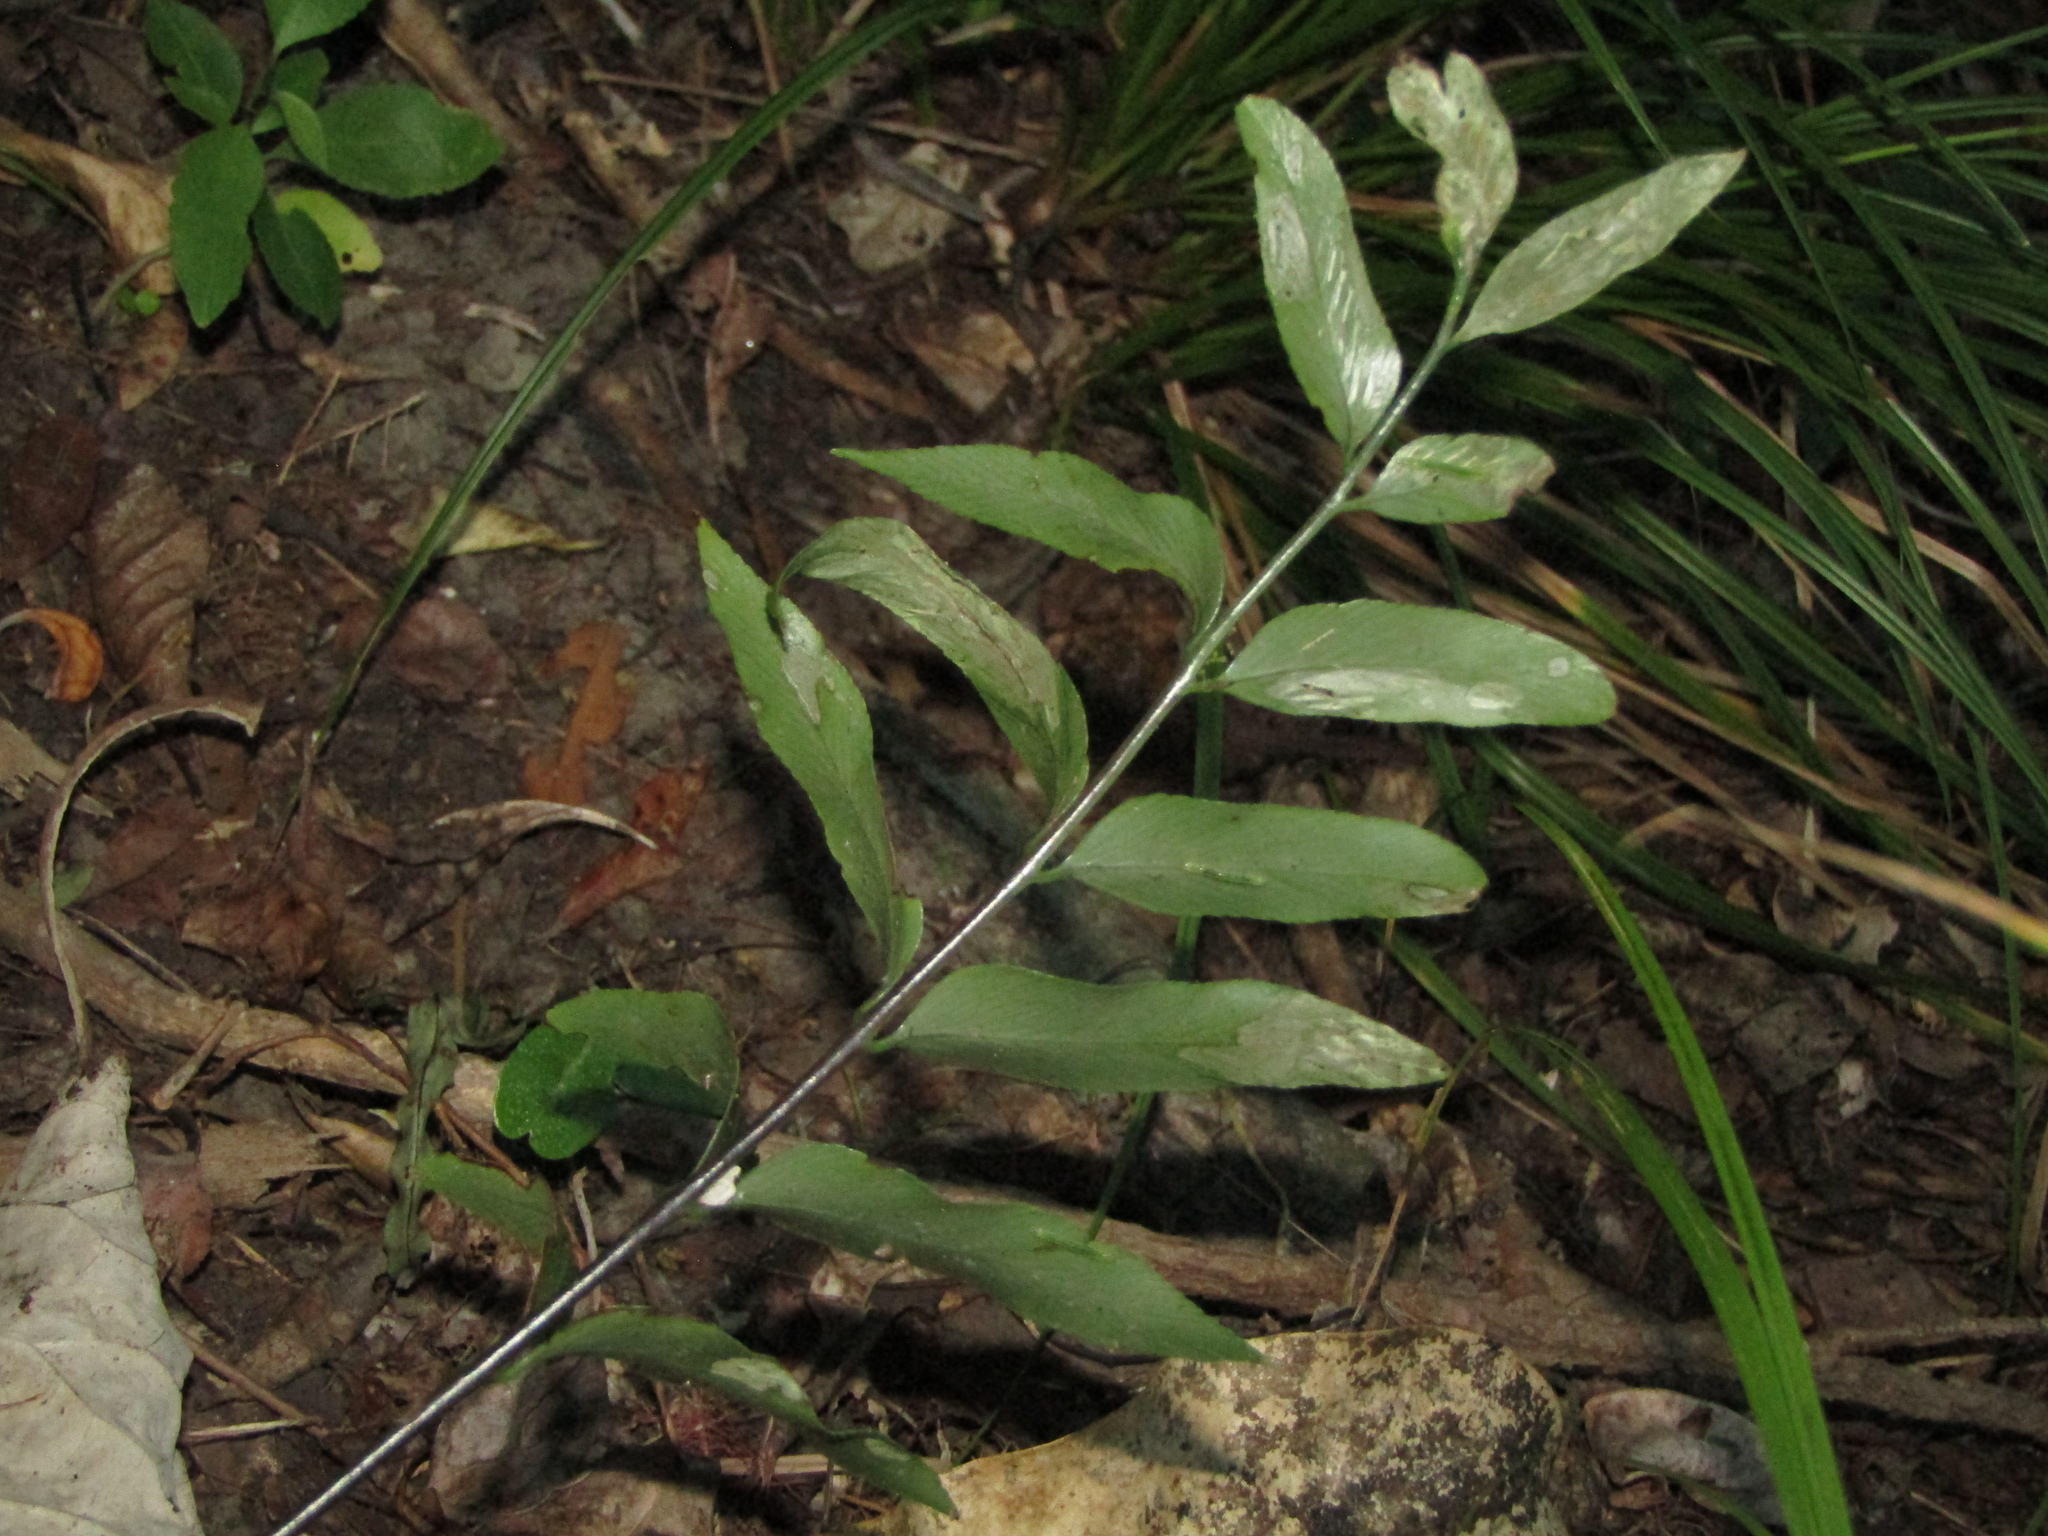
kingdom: Plantae
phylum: Tracheophyta
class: Polypodiopsida
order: Polypodiales
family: Aspleniaceae
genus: Asplenium
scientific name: Asplenium oblongifolium
